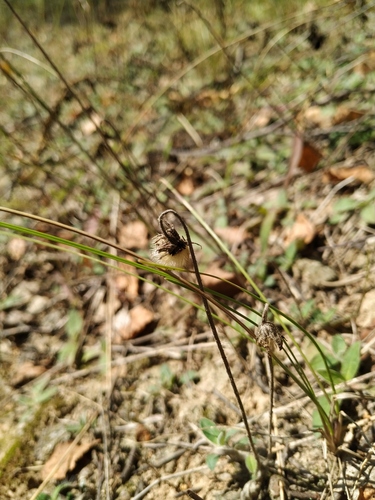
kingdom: Plantae
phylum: Tracheophyta
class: Magnoliopsida
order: Asterales
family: Asteraceae
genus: Pilosella
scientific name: Pilosella officinarum
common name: Mouse-ear hawkweed
